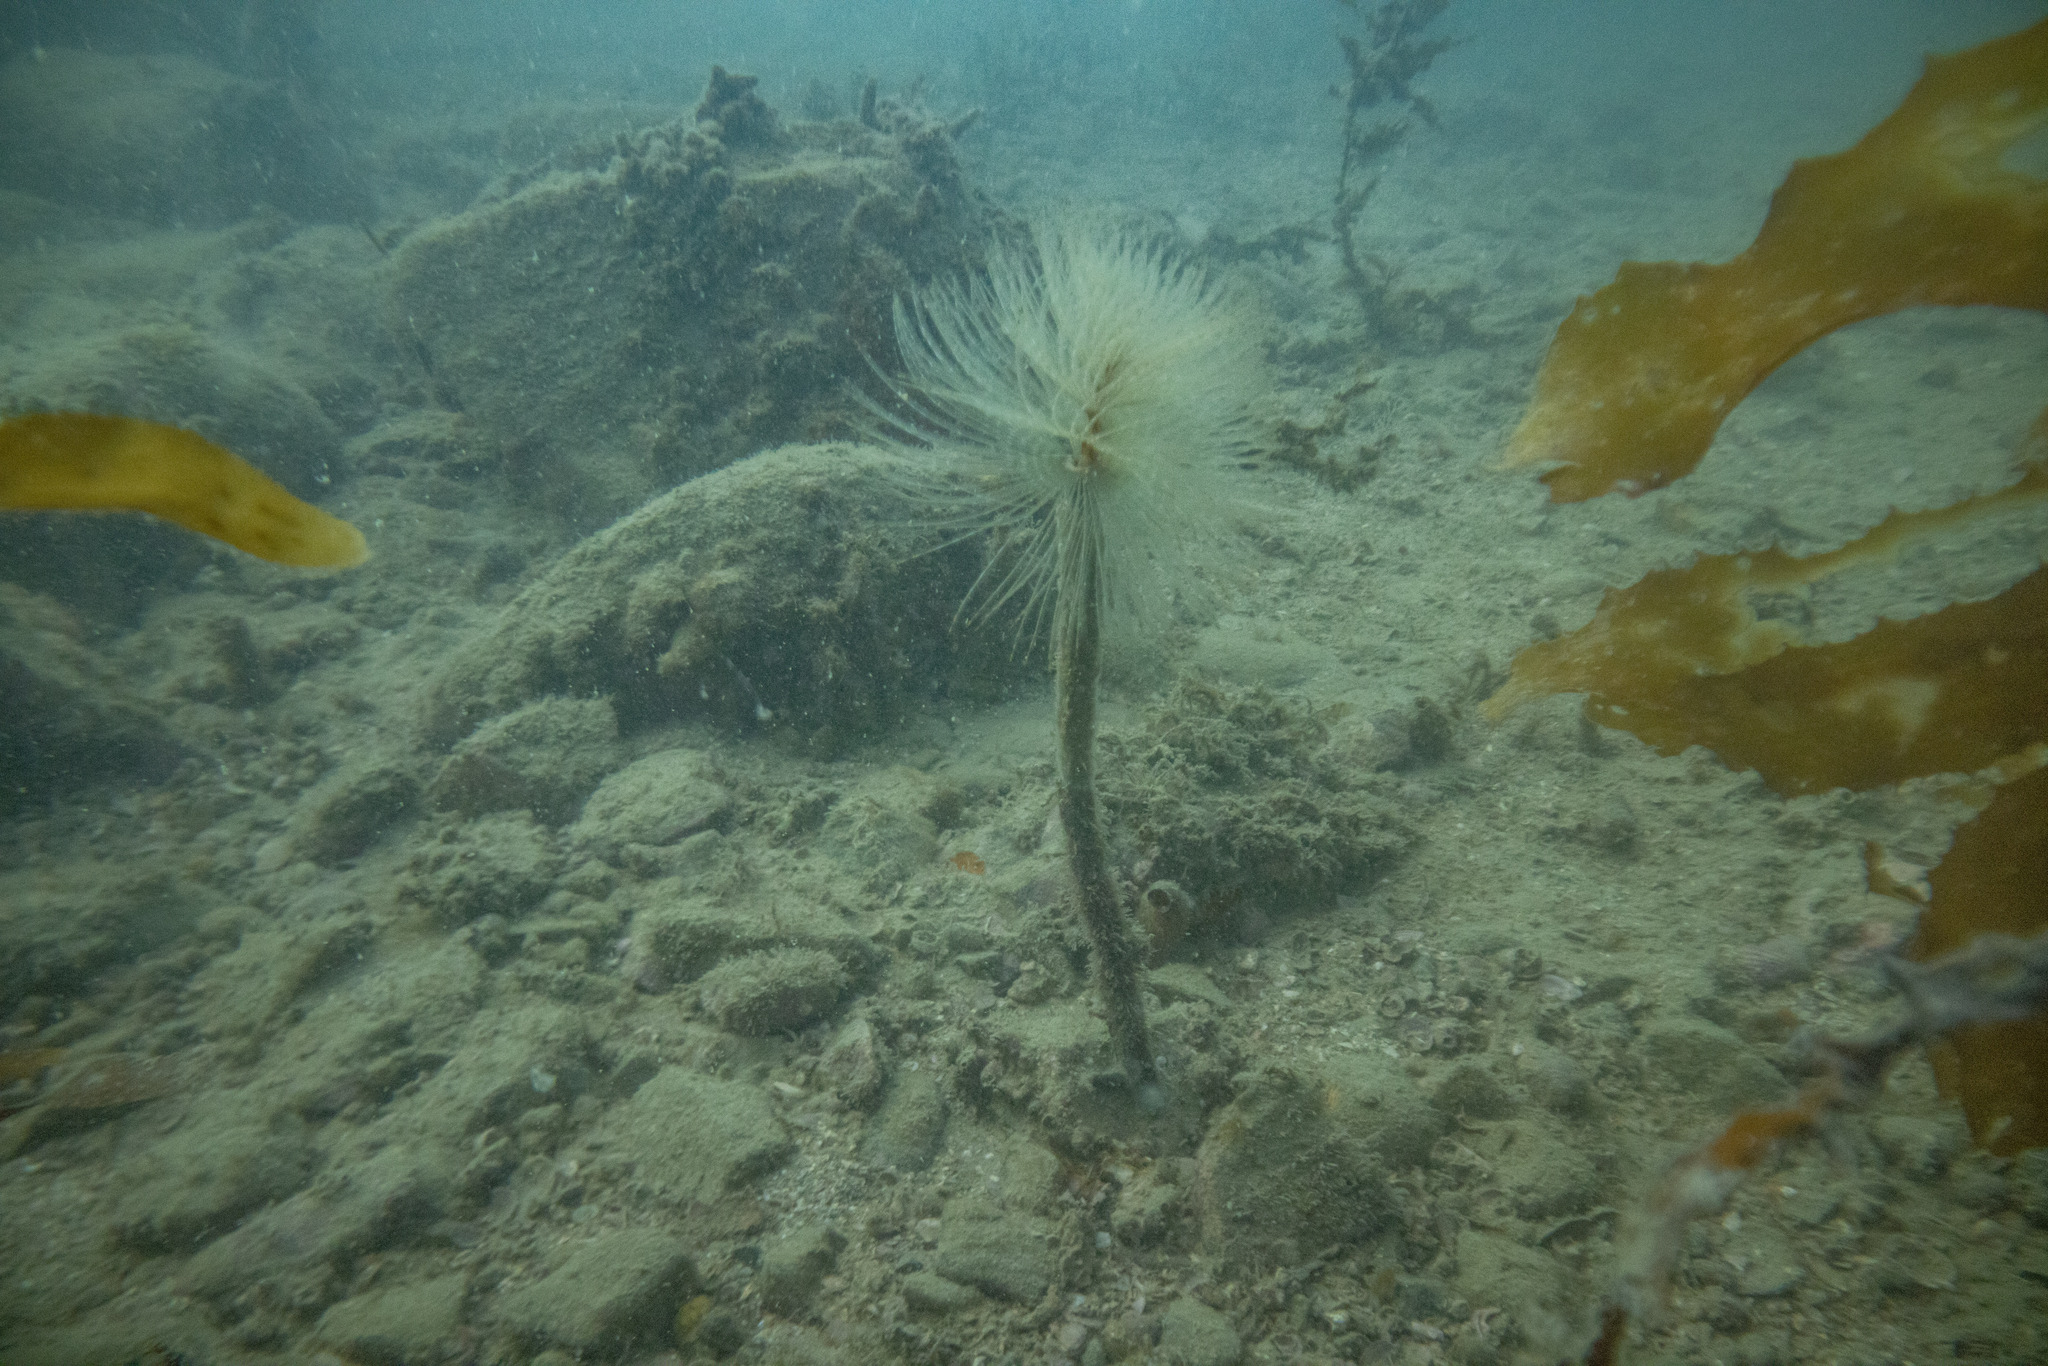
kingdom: Animalia
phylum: Annelida
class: Polychaeta
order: Sabellida
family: Sabellidae
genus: Sabella
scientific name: Sabella spallanzanii
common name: Feather duster worm
